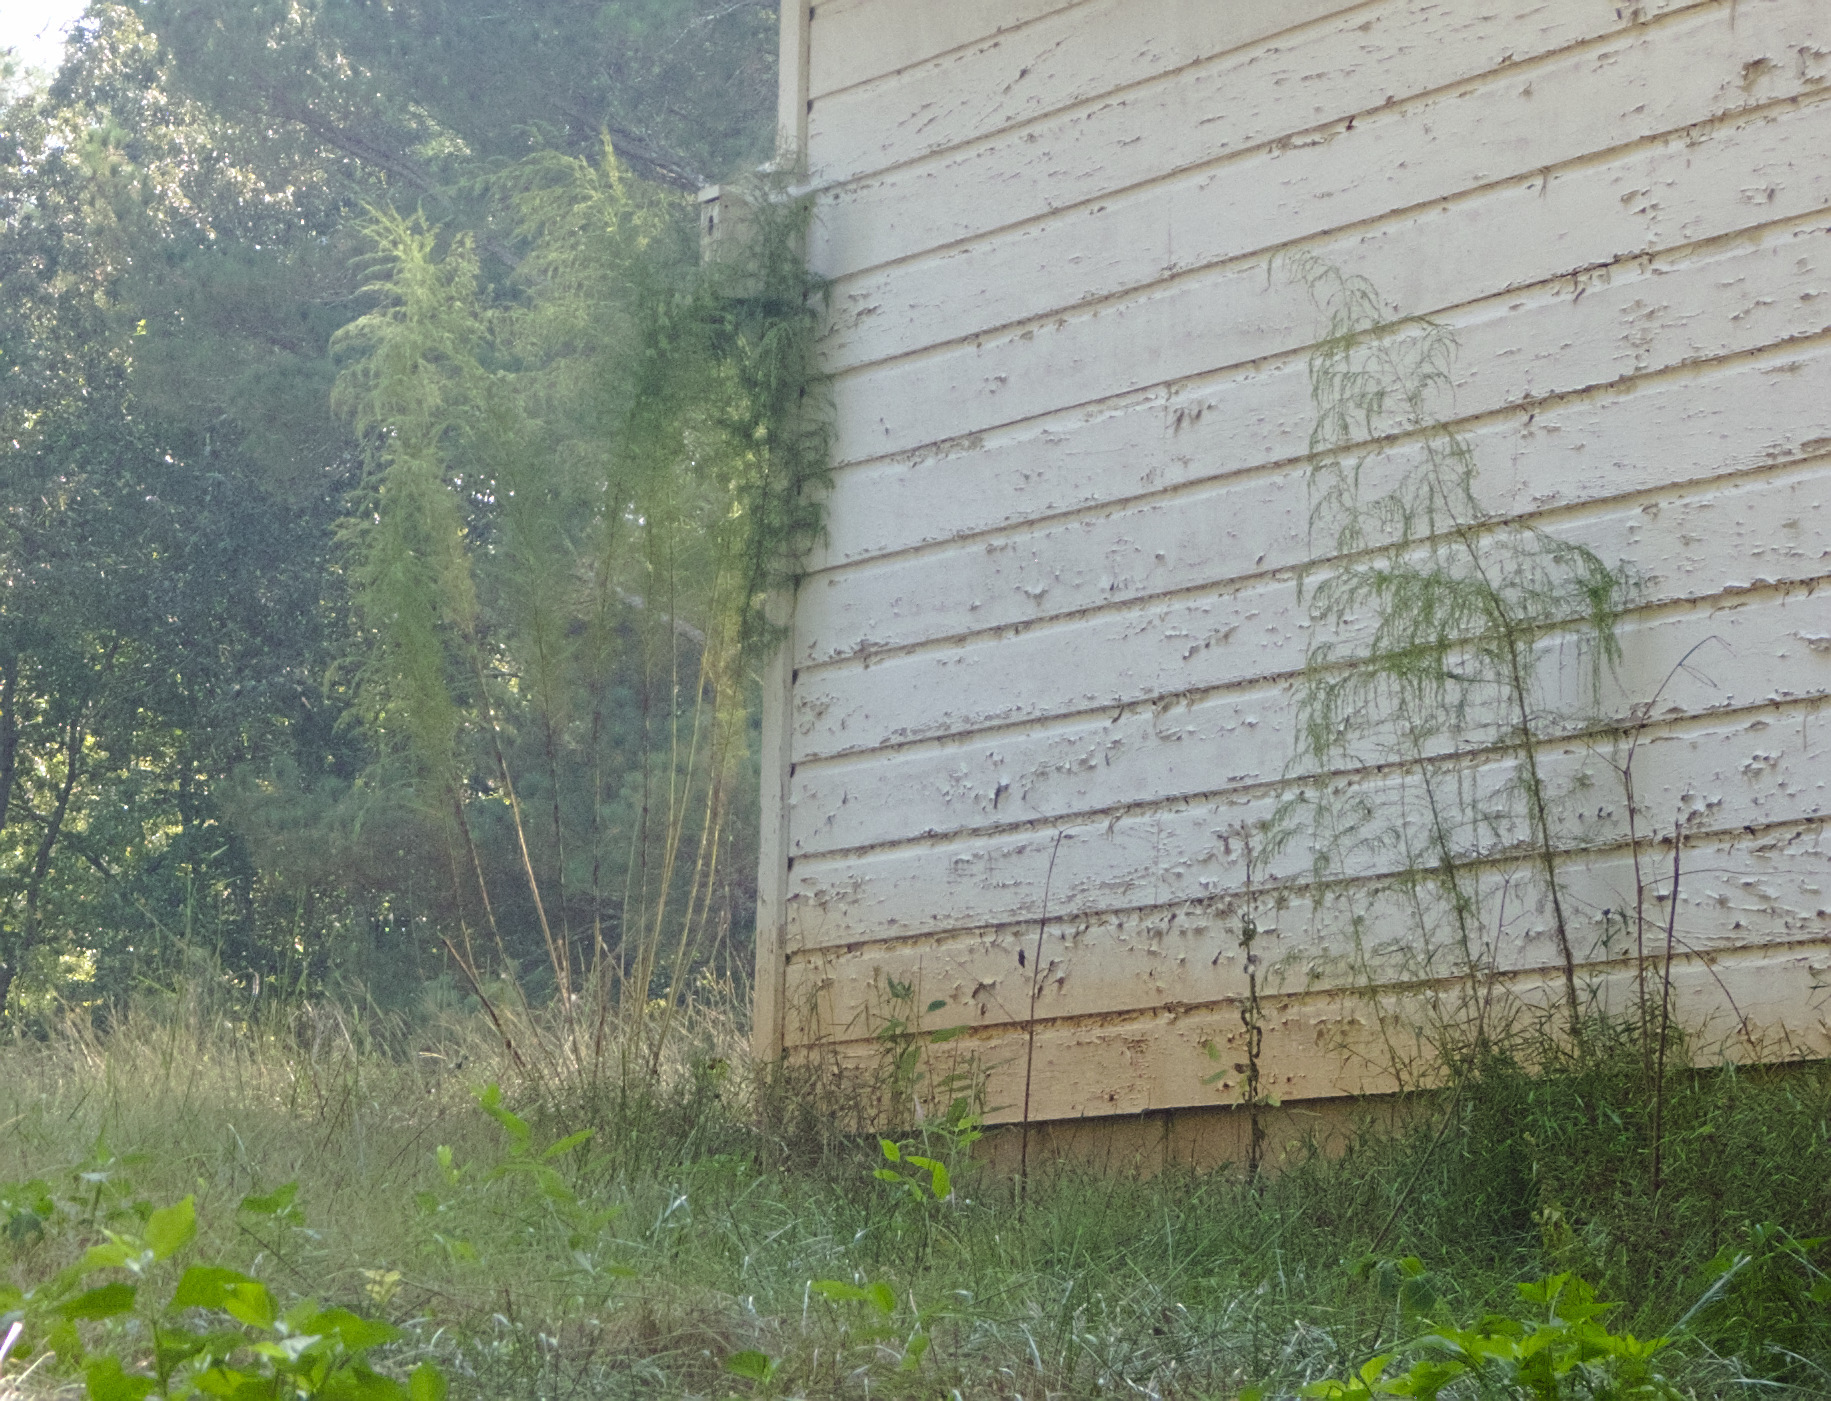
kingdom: Plantae
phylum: Tracheophyta
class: Magnoliopsida
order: Asterales
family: Asteraceae
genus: Eupatorium
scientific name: Eupatorium capillifolium
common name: Dog-fennel
